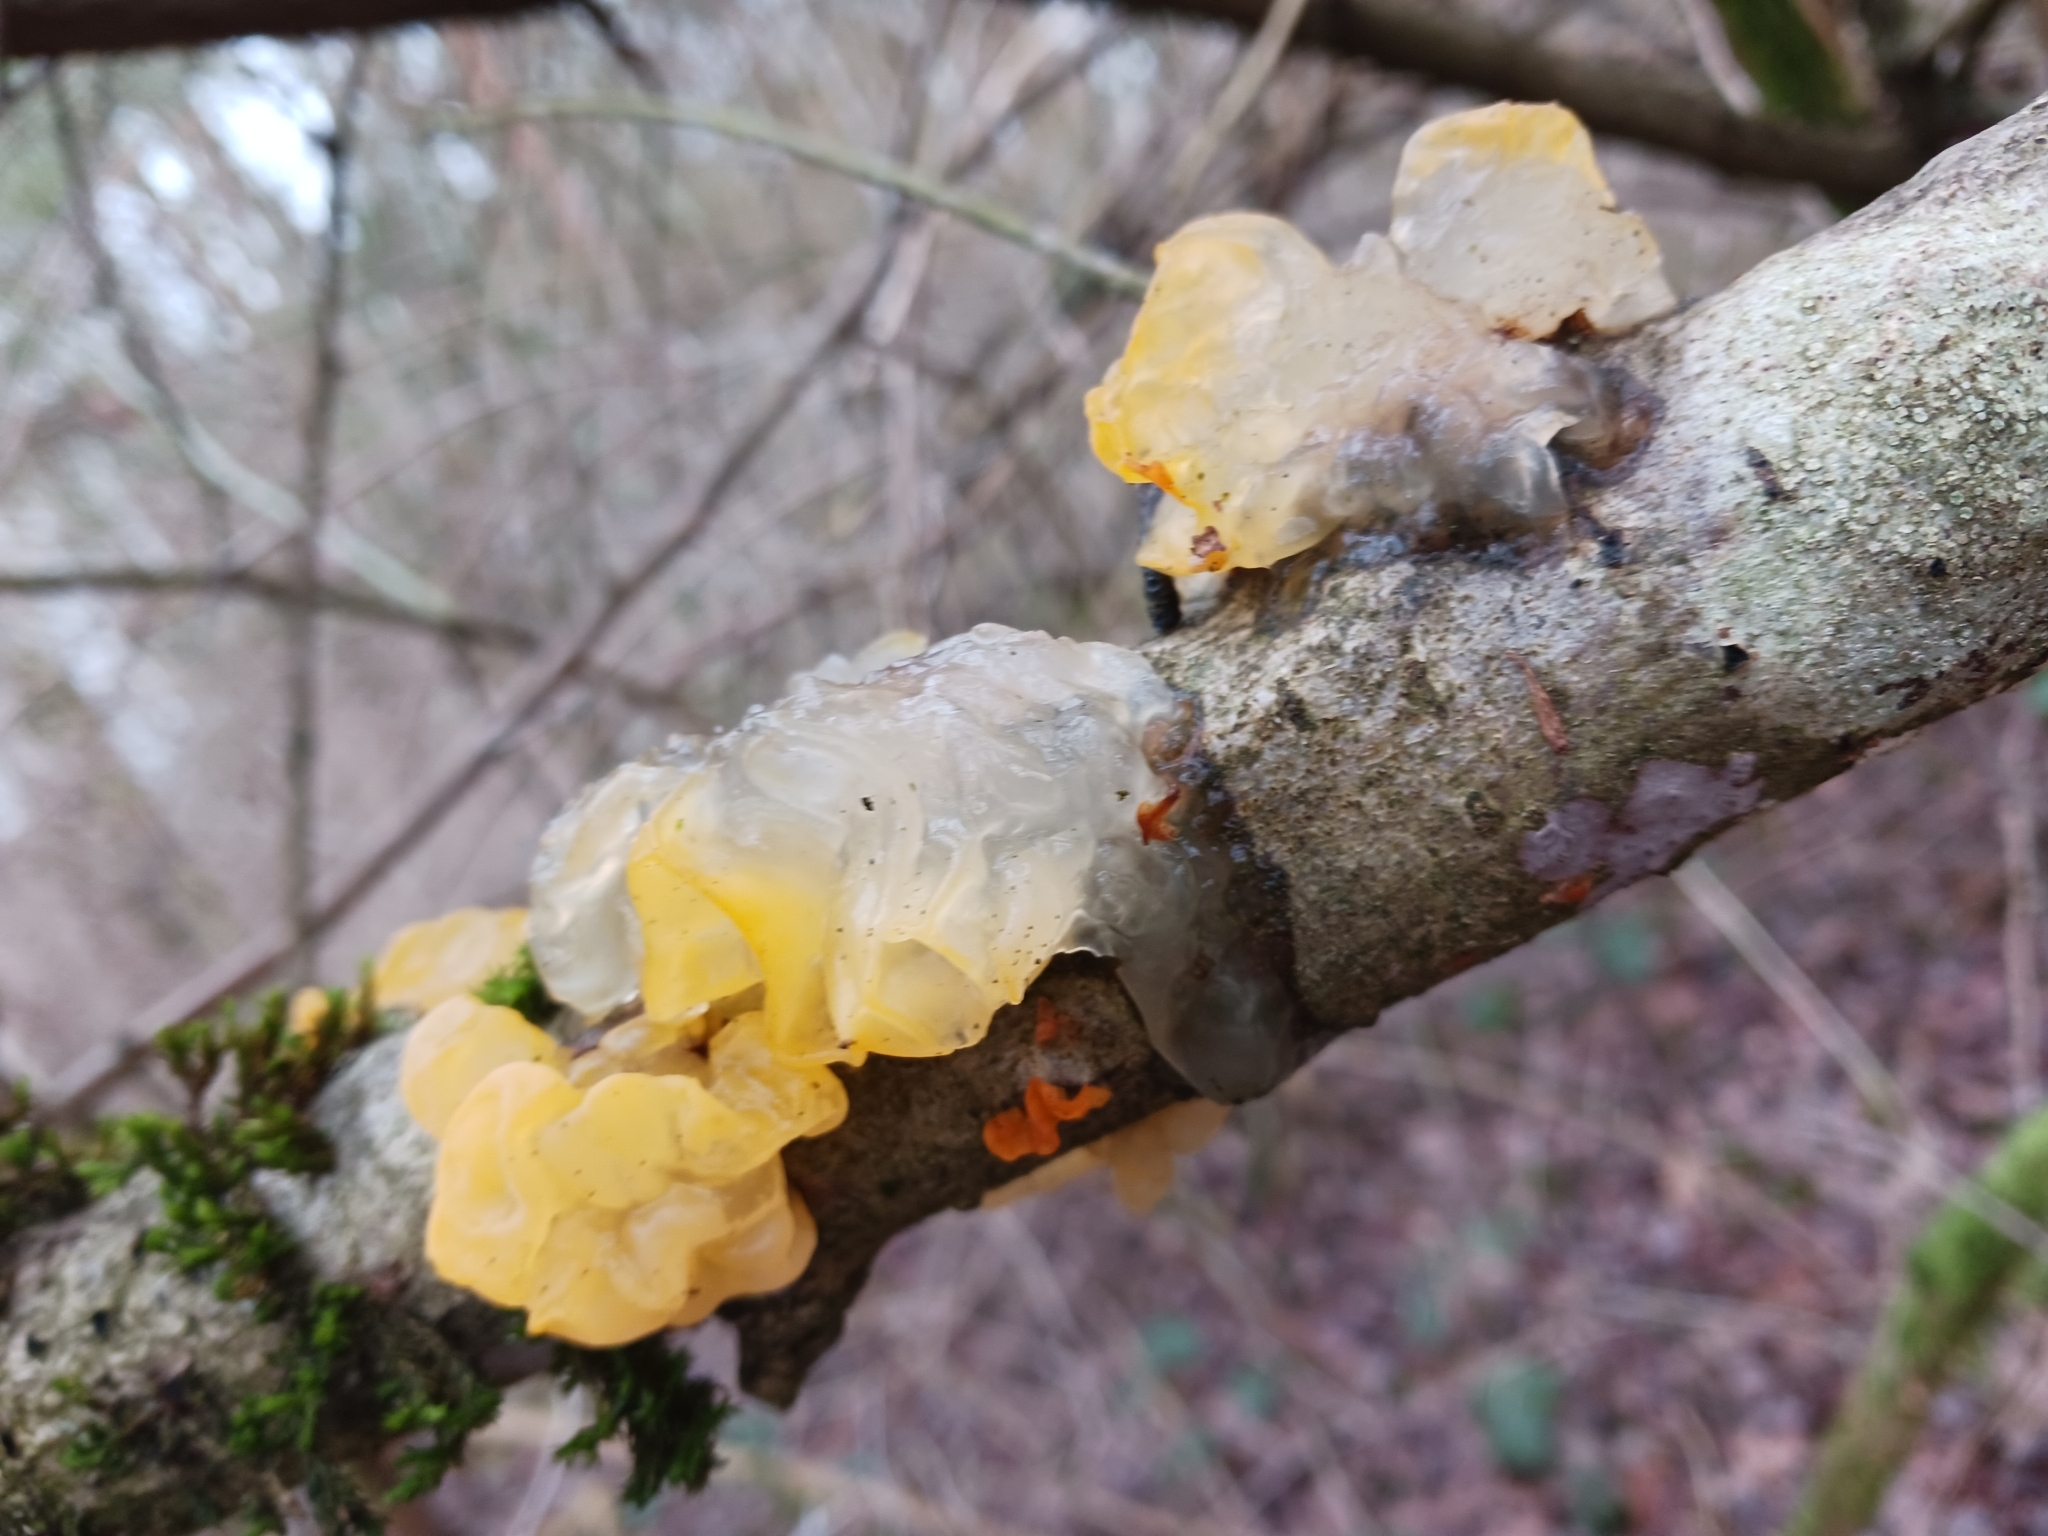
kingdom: Fungi
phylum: Basidiomycota
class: Tremellomycetes
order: Tremellales
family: Tremellaceae
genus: Tremella
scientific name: Tremella mesenterica
